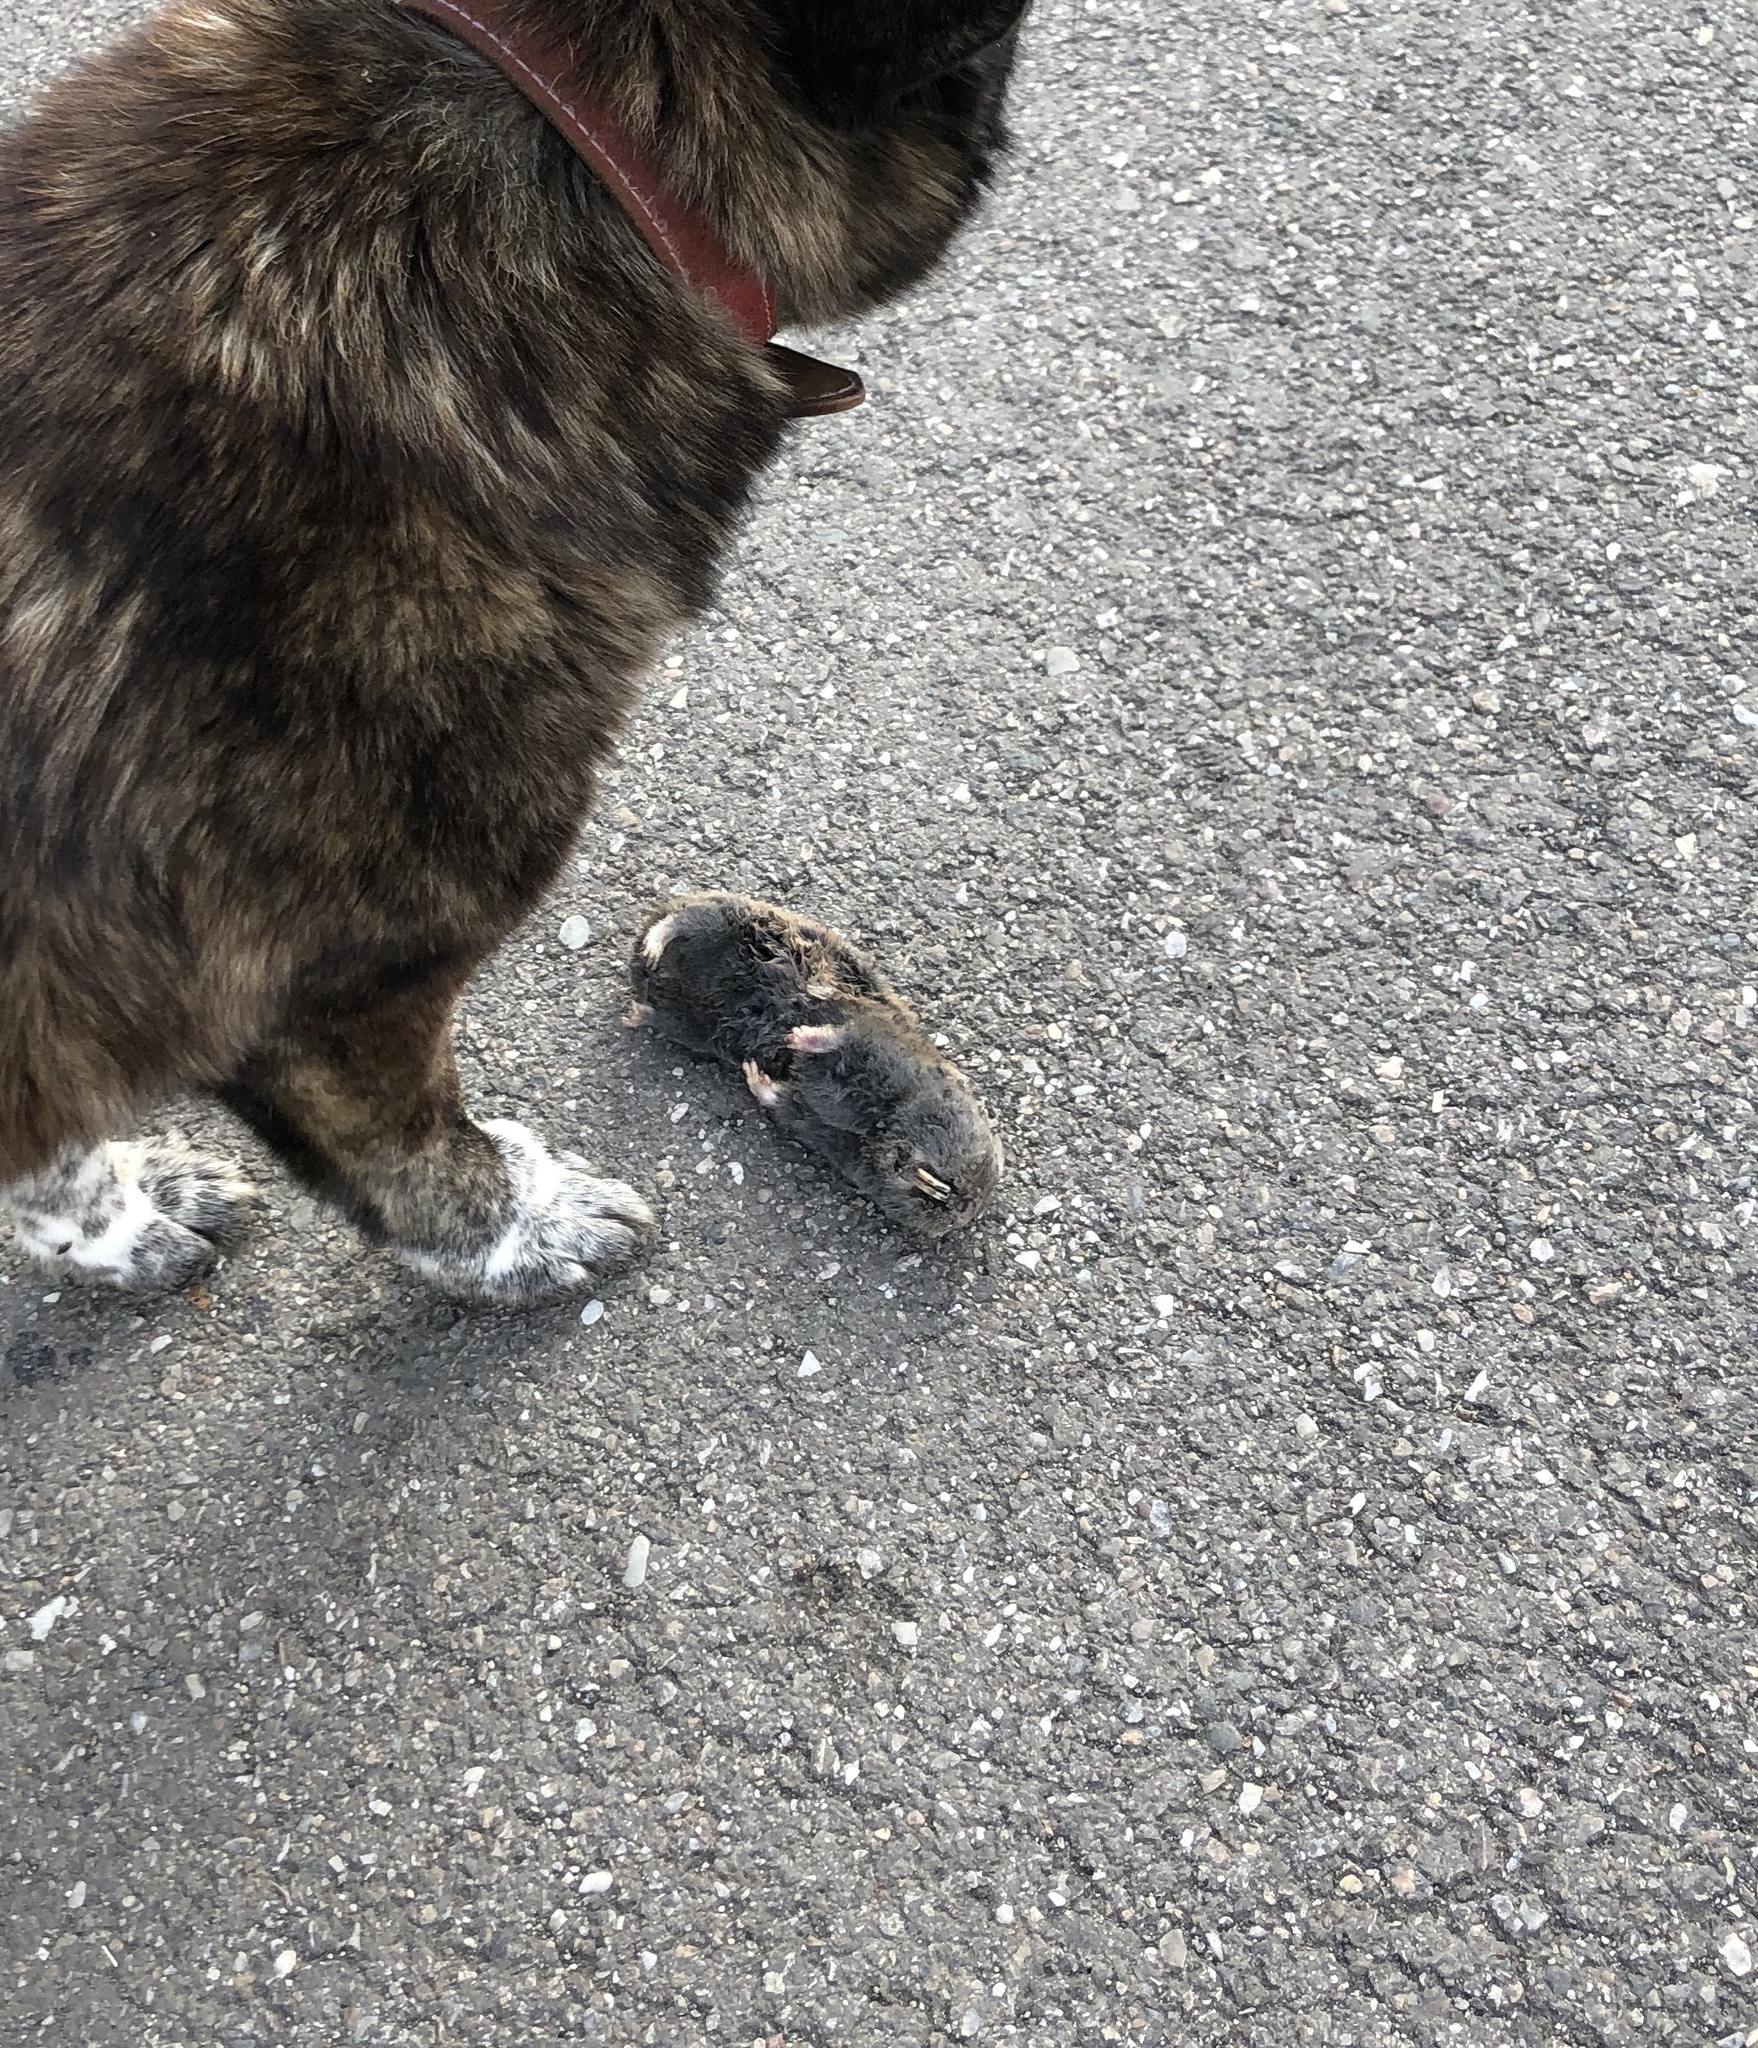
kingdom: Animalia
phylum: Chordata
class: Mammalia
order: Rodentia
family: Spalacidae
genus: Spalax
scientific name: Spalax leucodon
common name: Lesser blind mole rat
